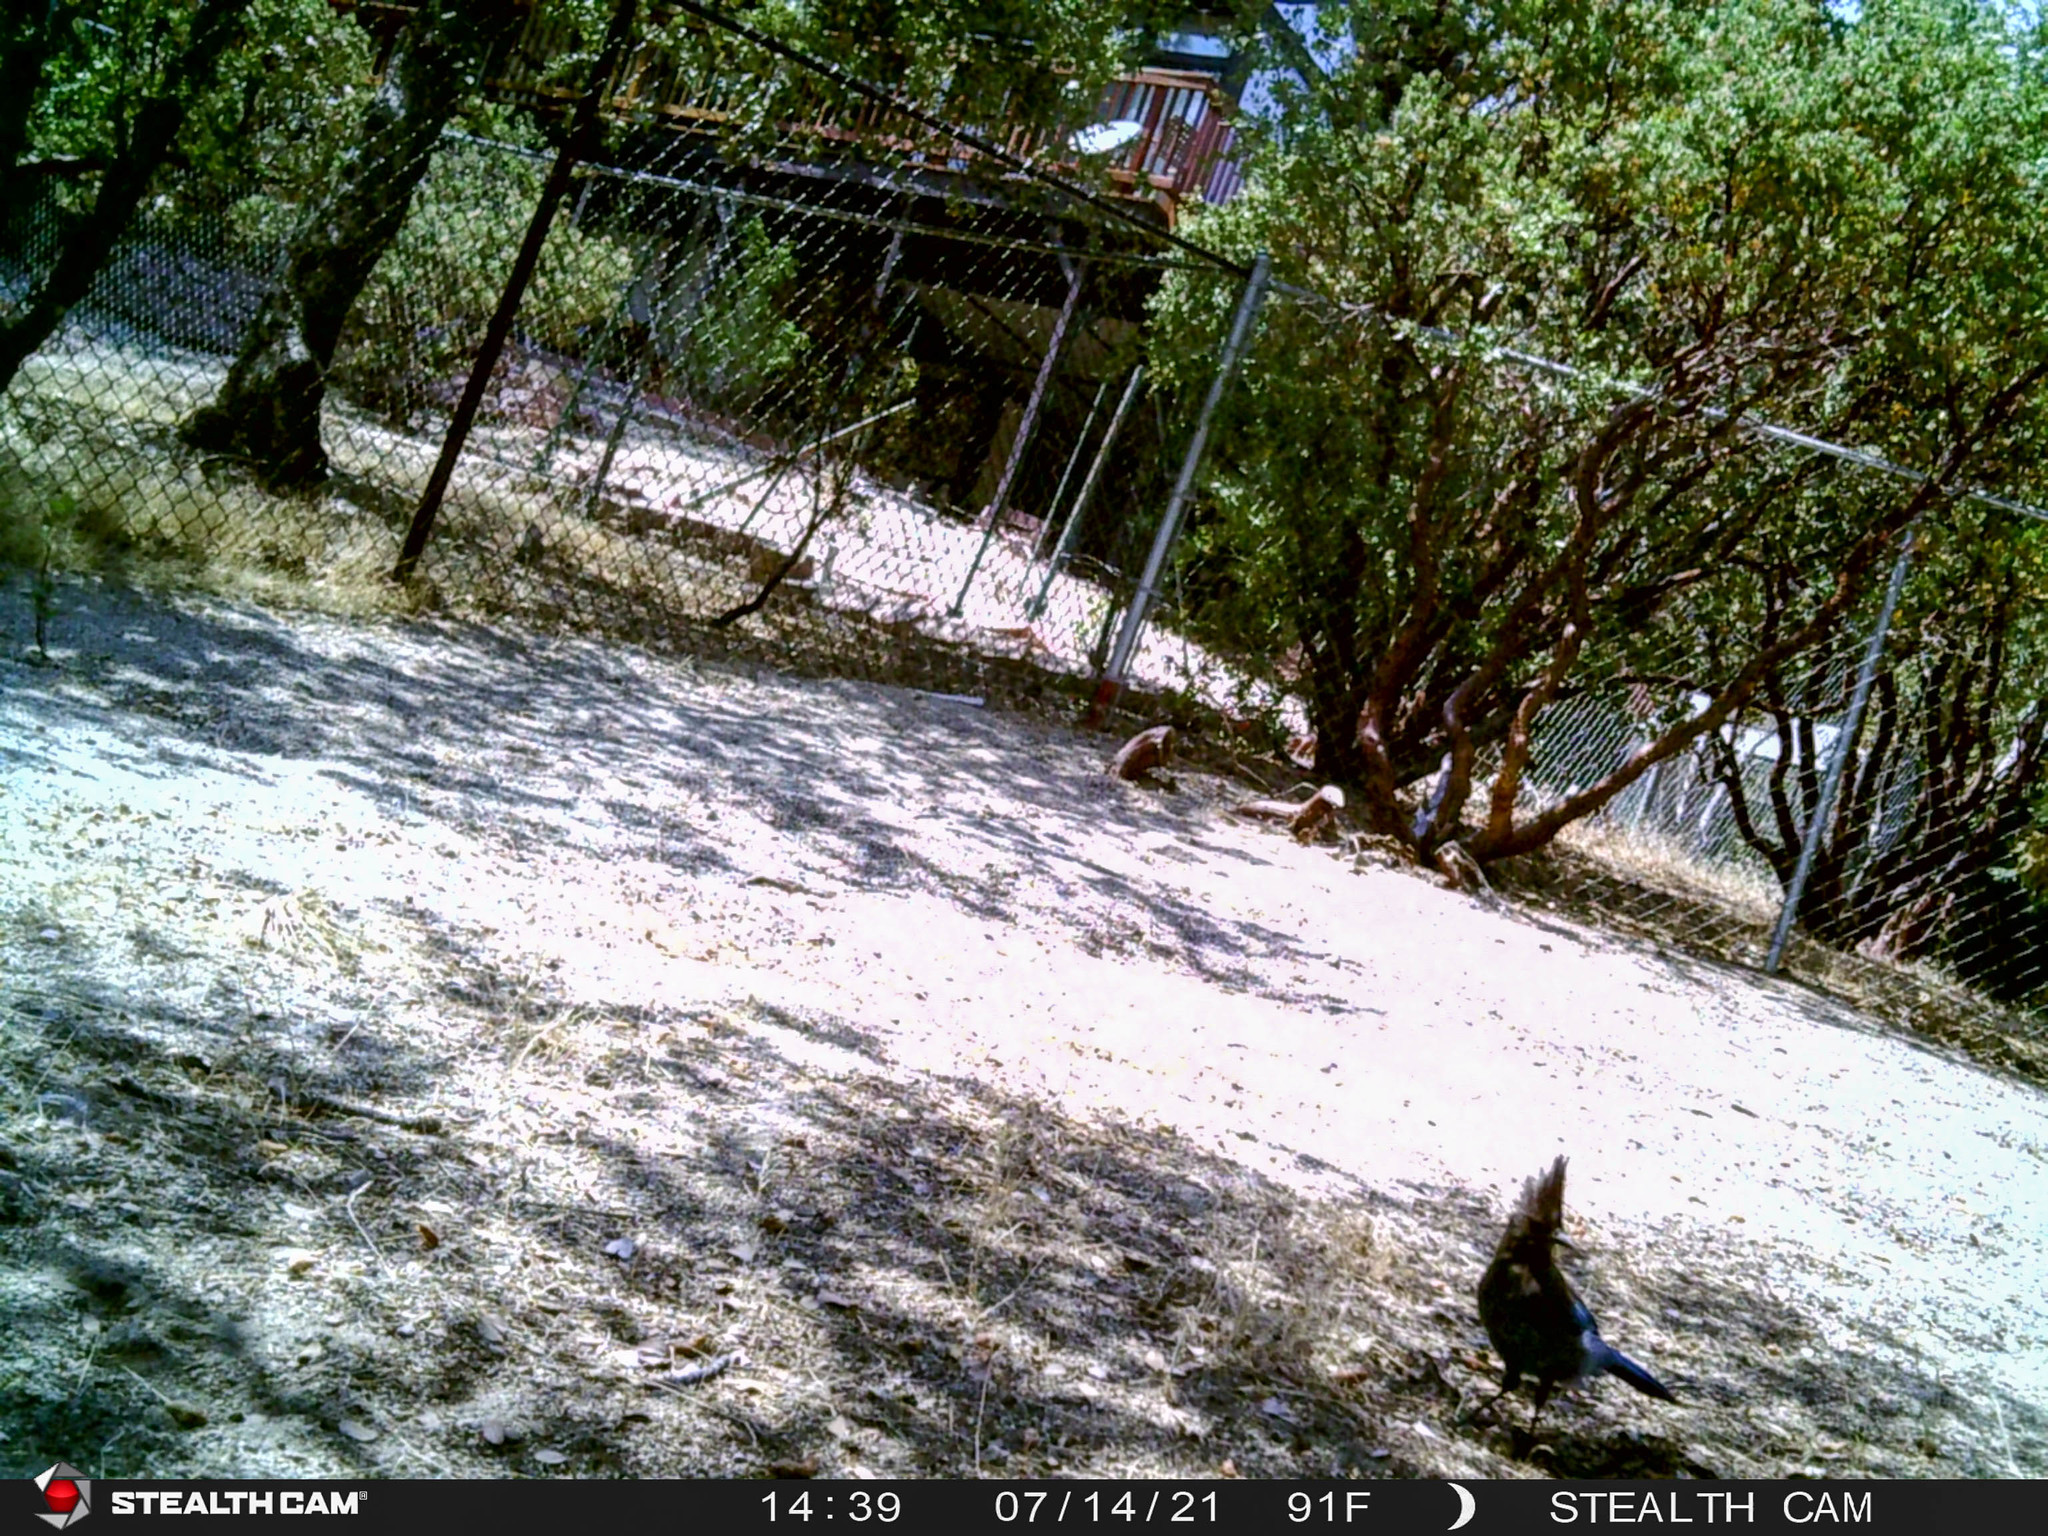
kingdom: Animalia
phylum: Chordata
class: Aves
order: Passeriformes
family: Corvidae
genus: Cyanocitta
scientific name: Cyanocitta stelleri
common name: Steller's jay
